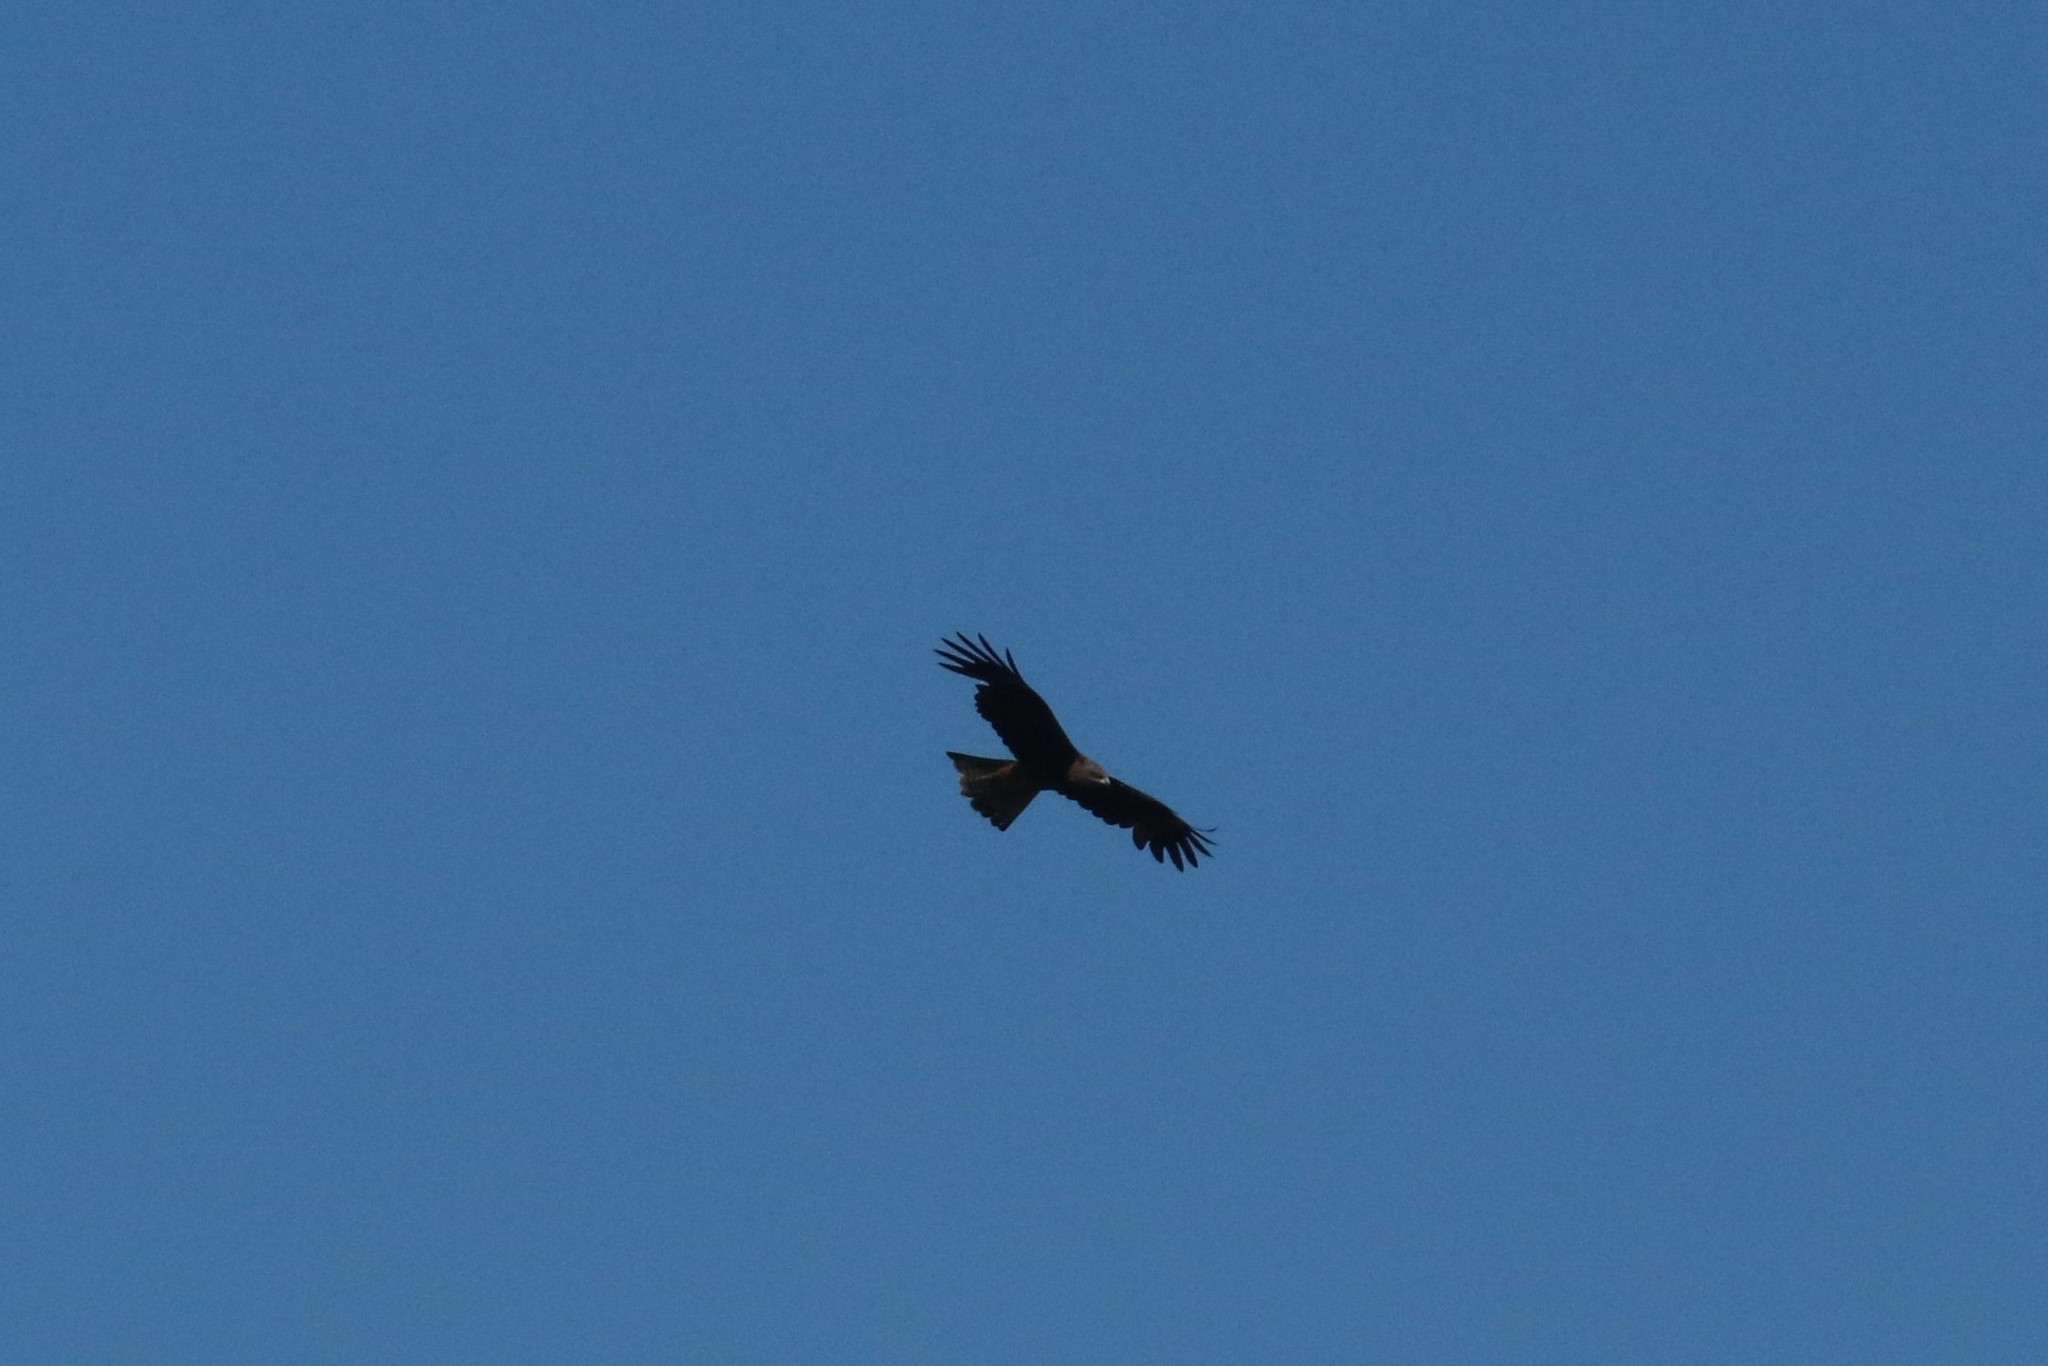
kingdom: Animalia
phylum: Chordata
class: Aves
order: Accipitriformes
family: Accipitridae
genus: Milvus
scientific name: Milvus migrans
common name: Black kite
